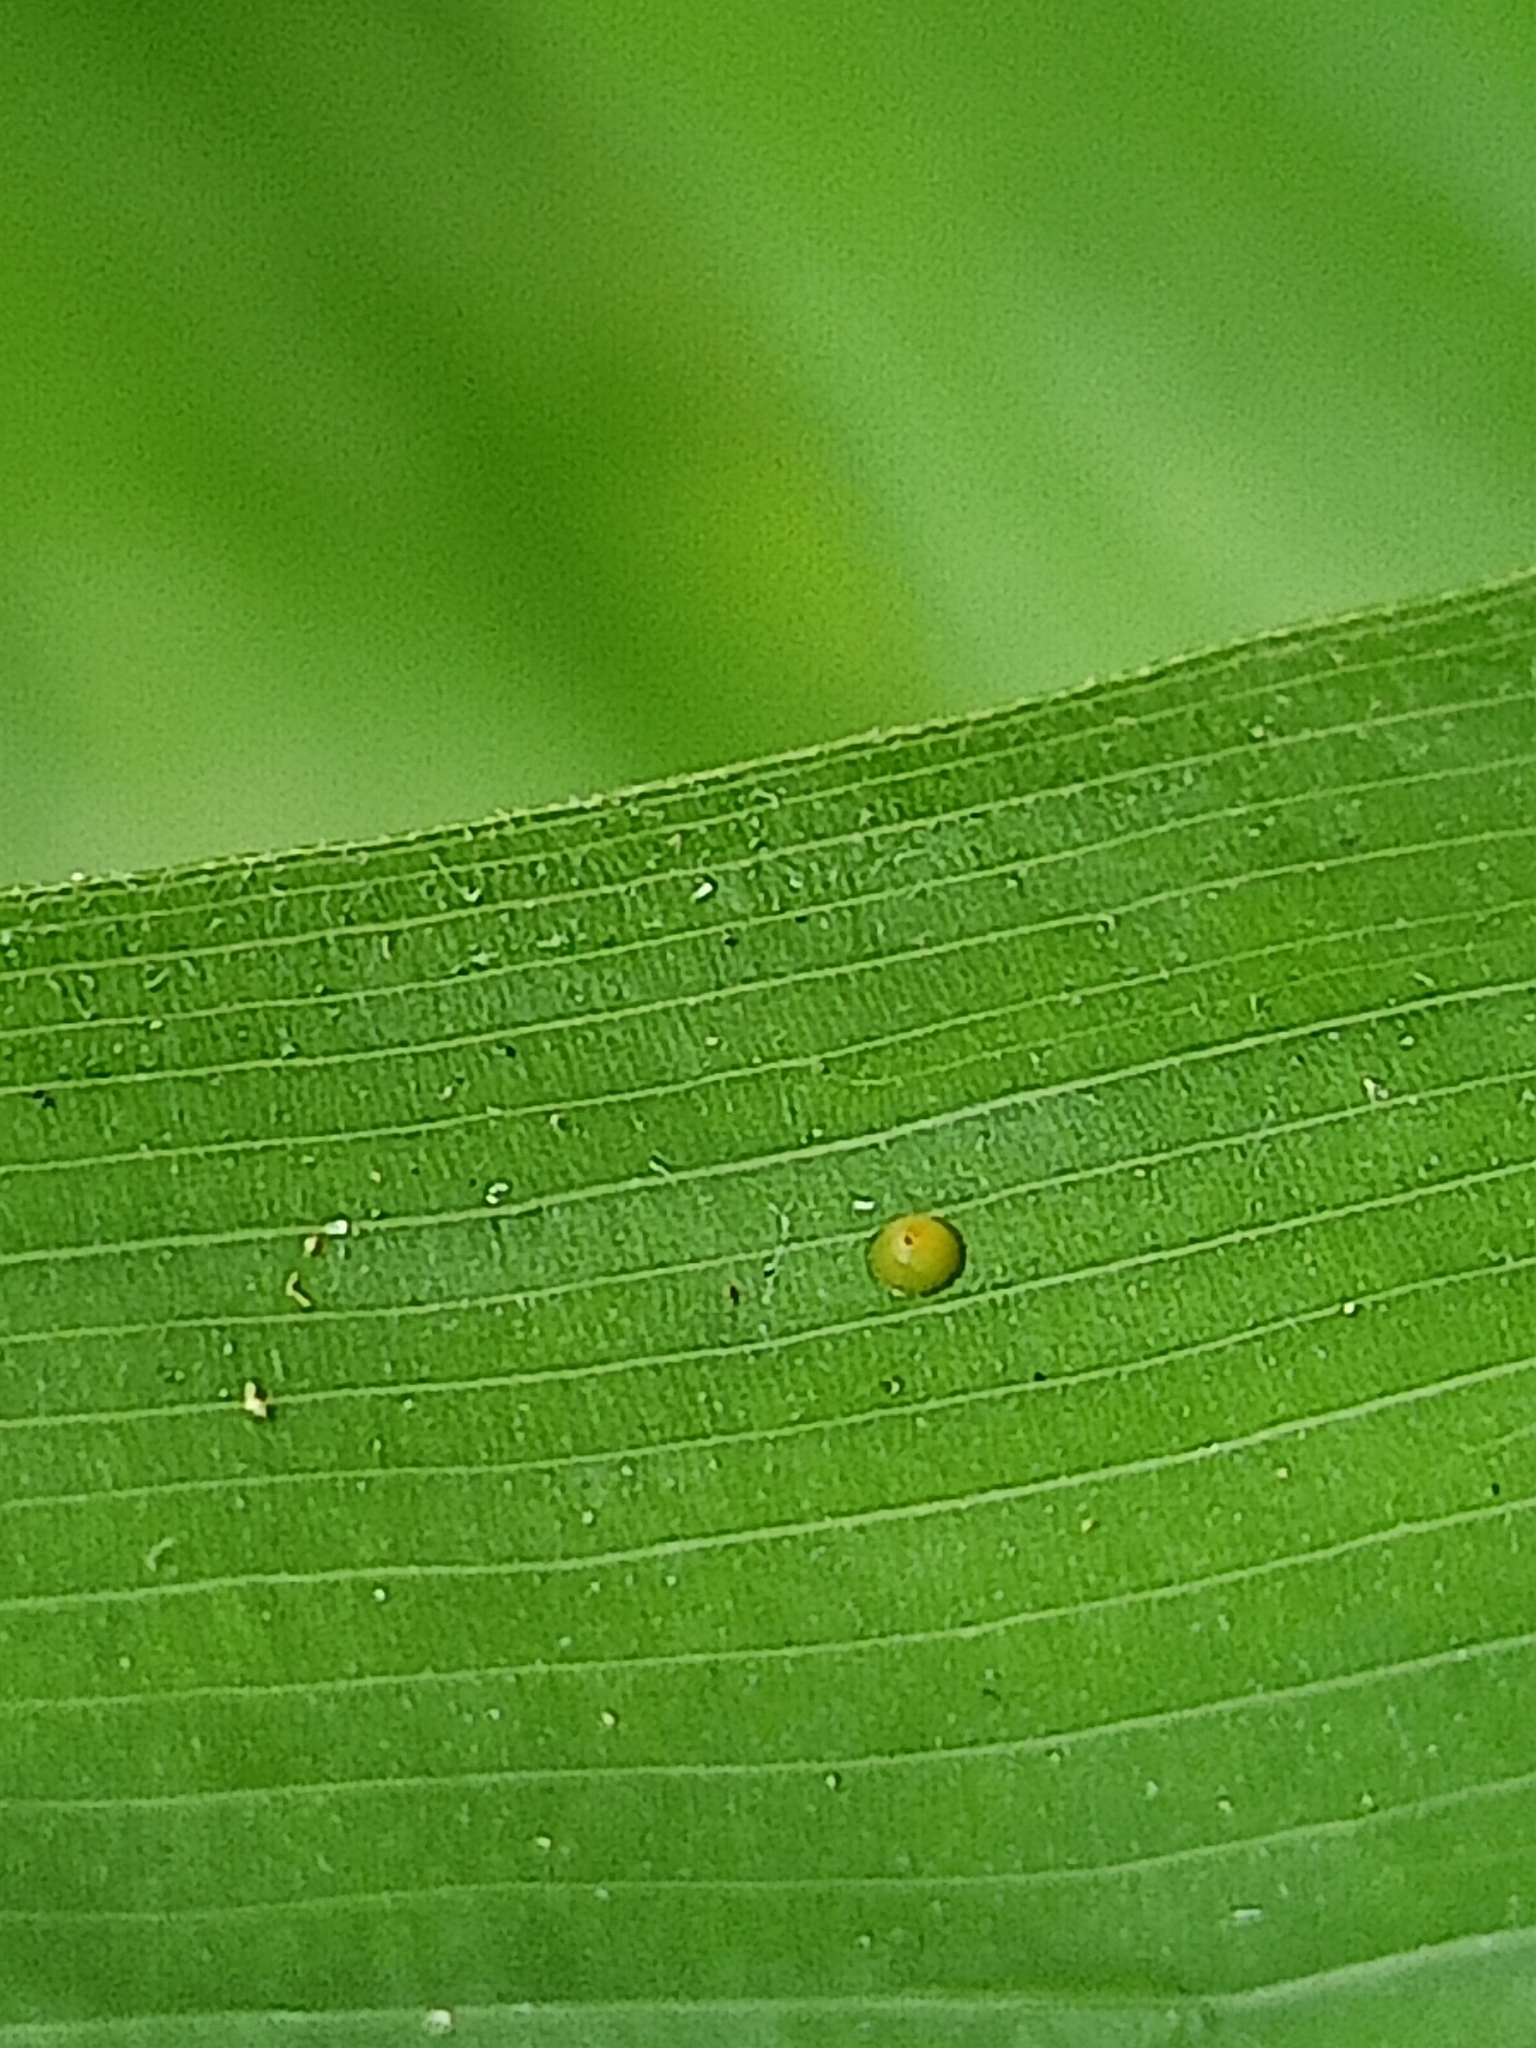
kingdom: Animalia
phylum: Arthropoda
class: Insecta
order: Lepidoptera
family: Hesperiidae
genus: Psolos
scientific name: Psolos fuligo
